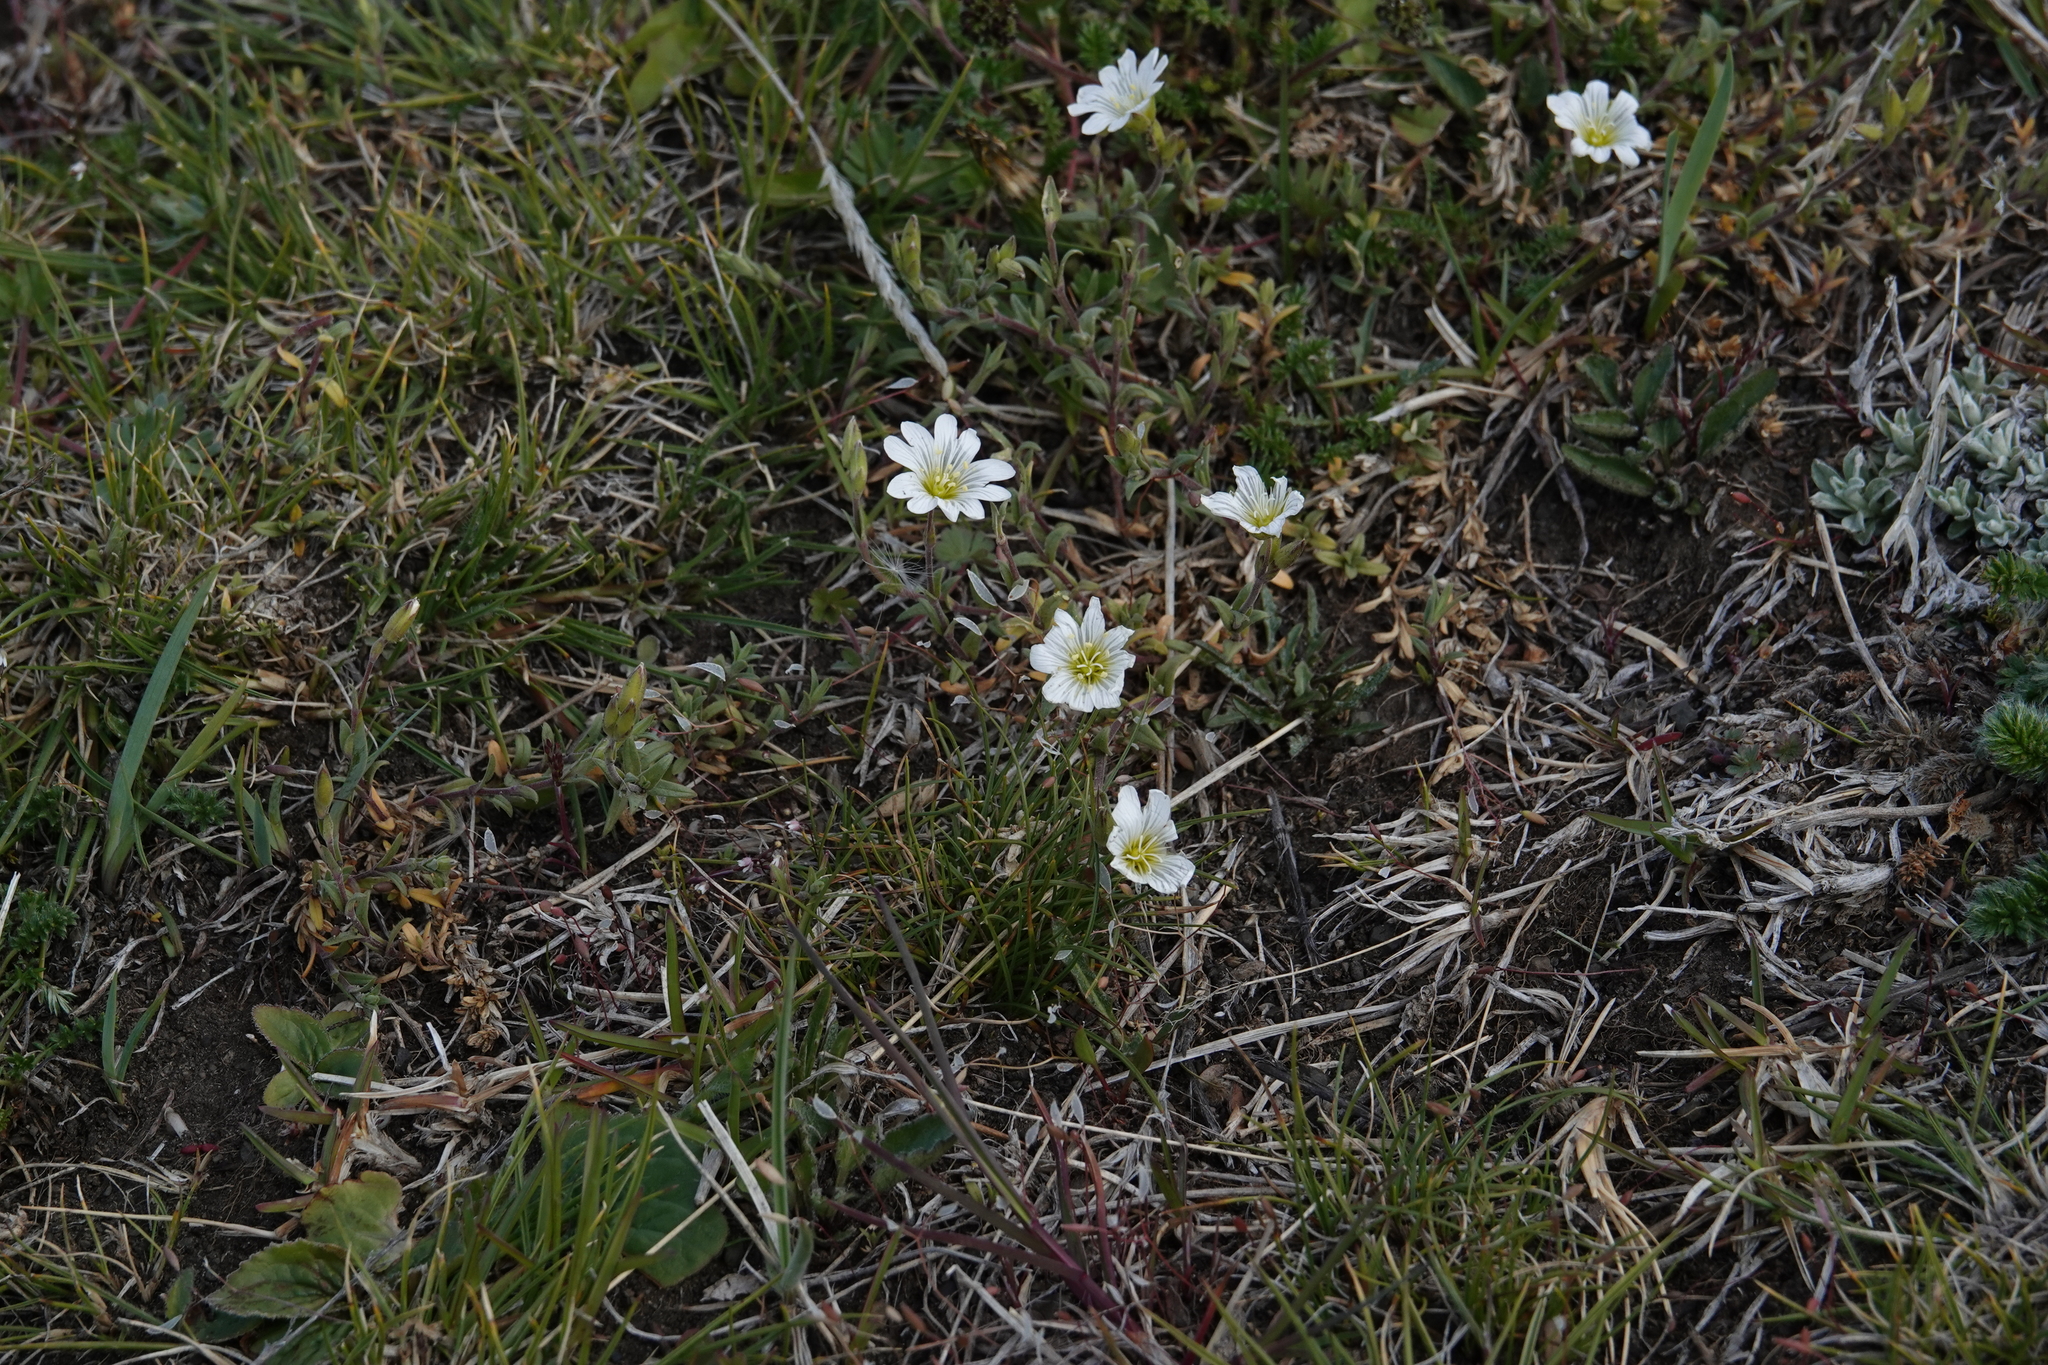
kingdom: Plantae
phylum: Tracheophyta
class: Magnoliopsida
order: Caryophyllales
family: Caryophyllaceae
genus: Cerastium
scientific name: Cerastium arvense
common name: Field mouse-ear
